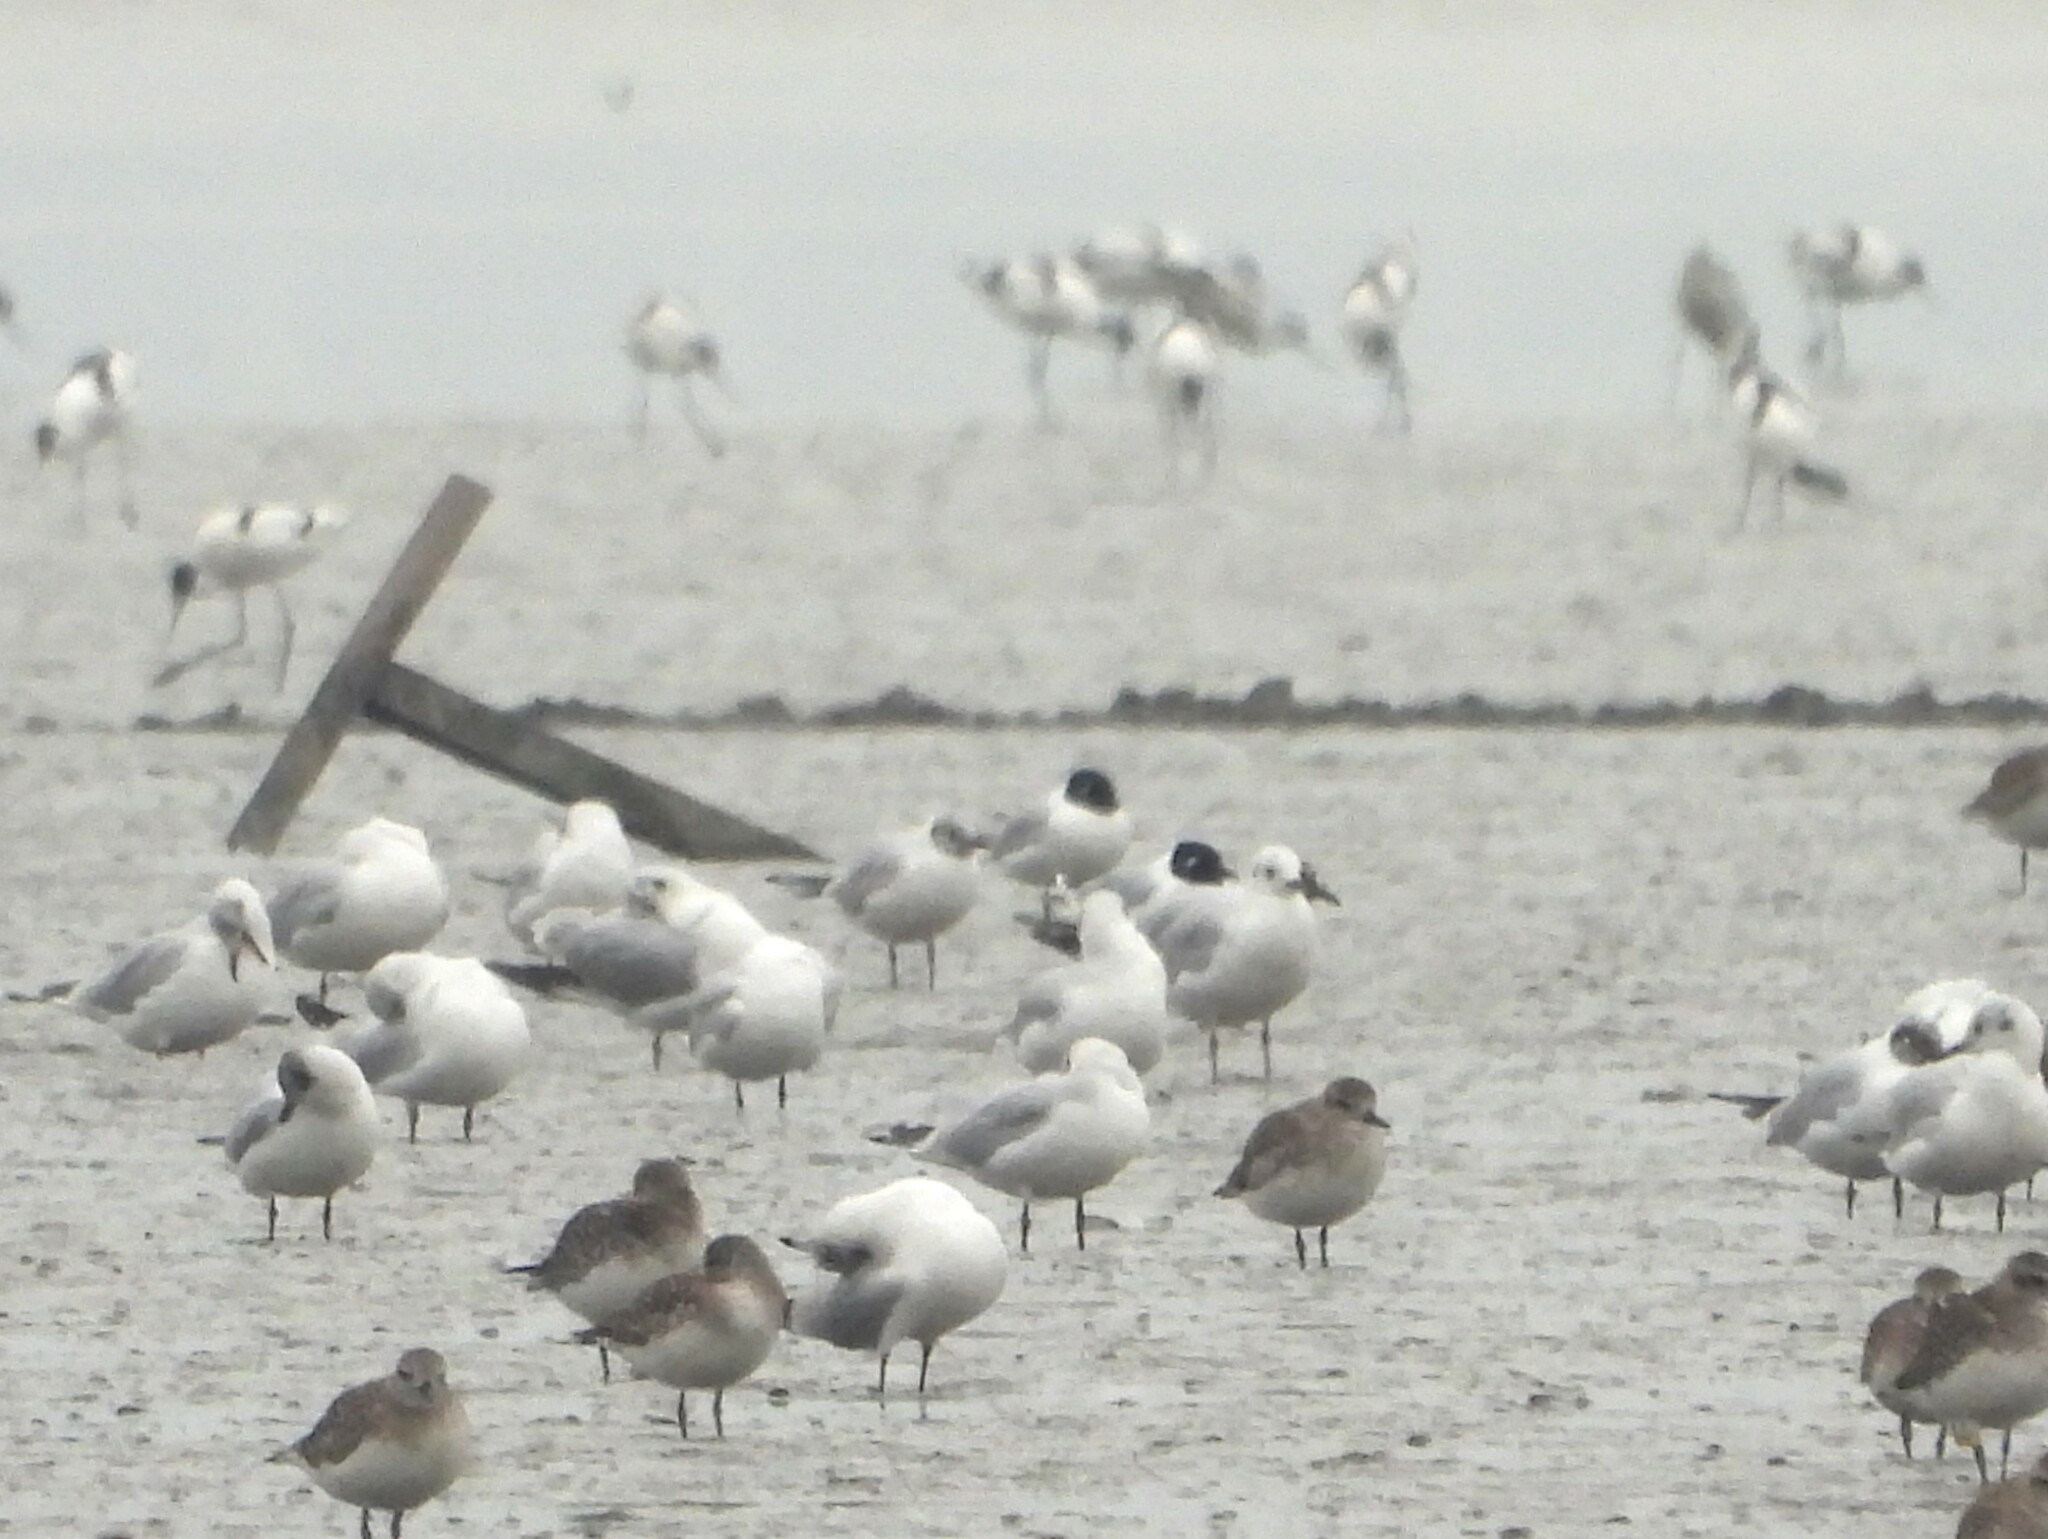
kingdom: Animalia
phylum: Chordata
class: Aves
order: Charadriiformes
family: Laridae
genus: Chroicocephalus
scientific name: Chroicocephalus saundersi
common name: Saunders's gull
